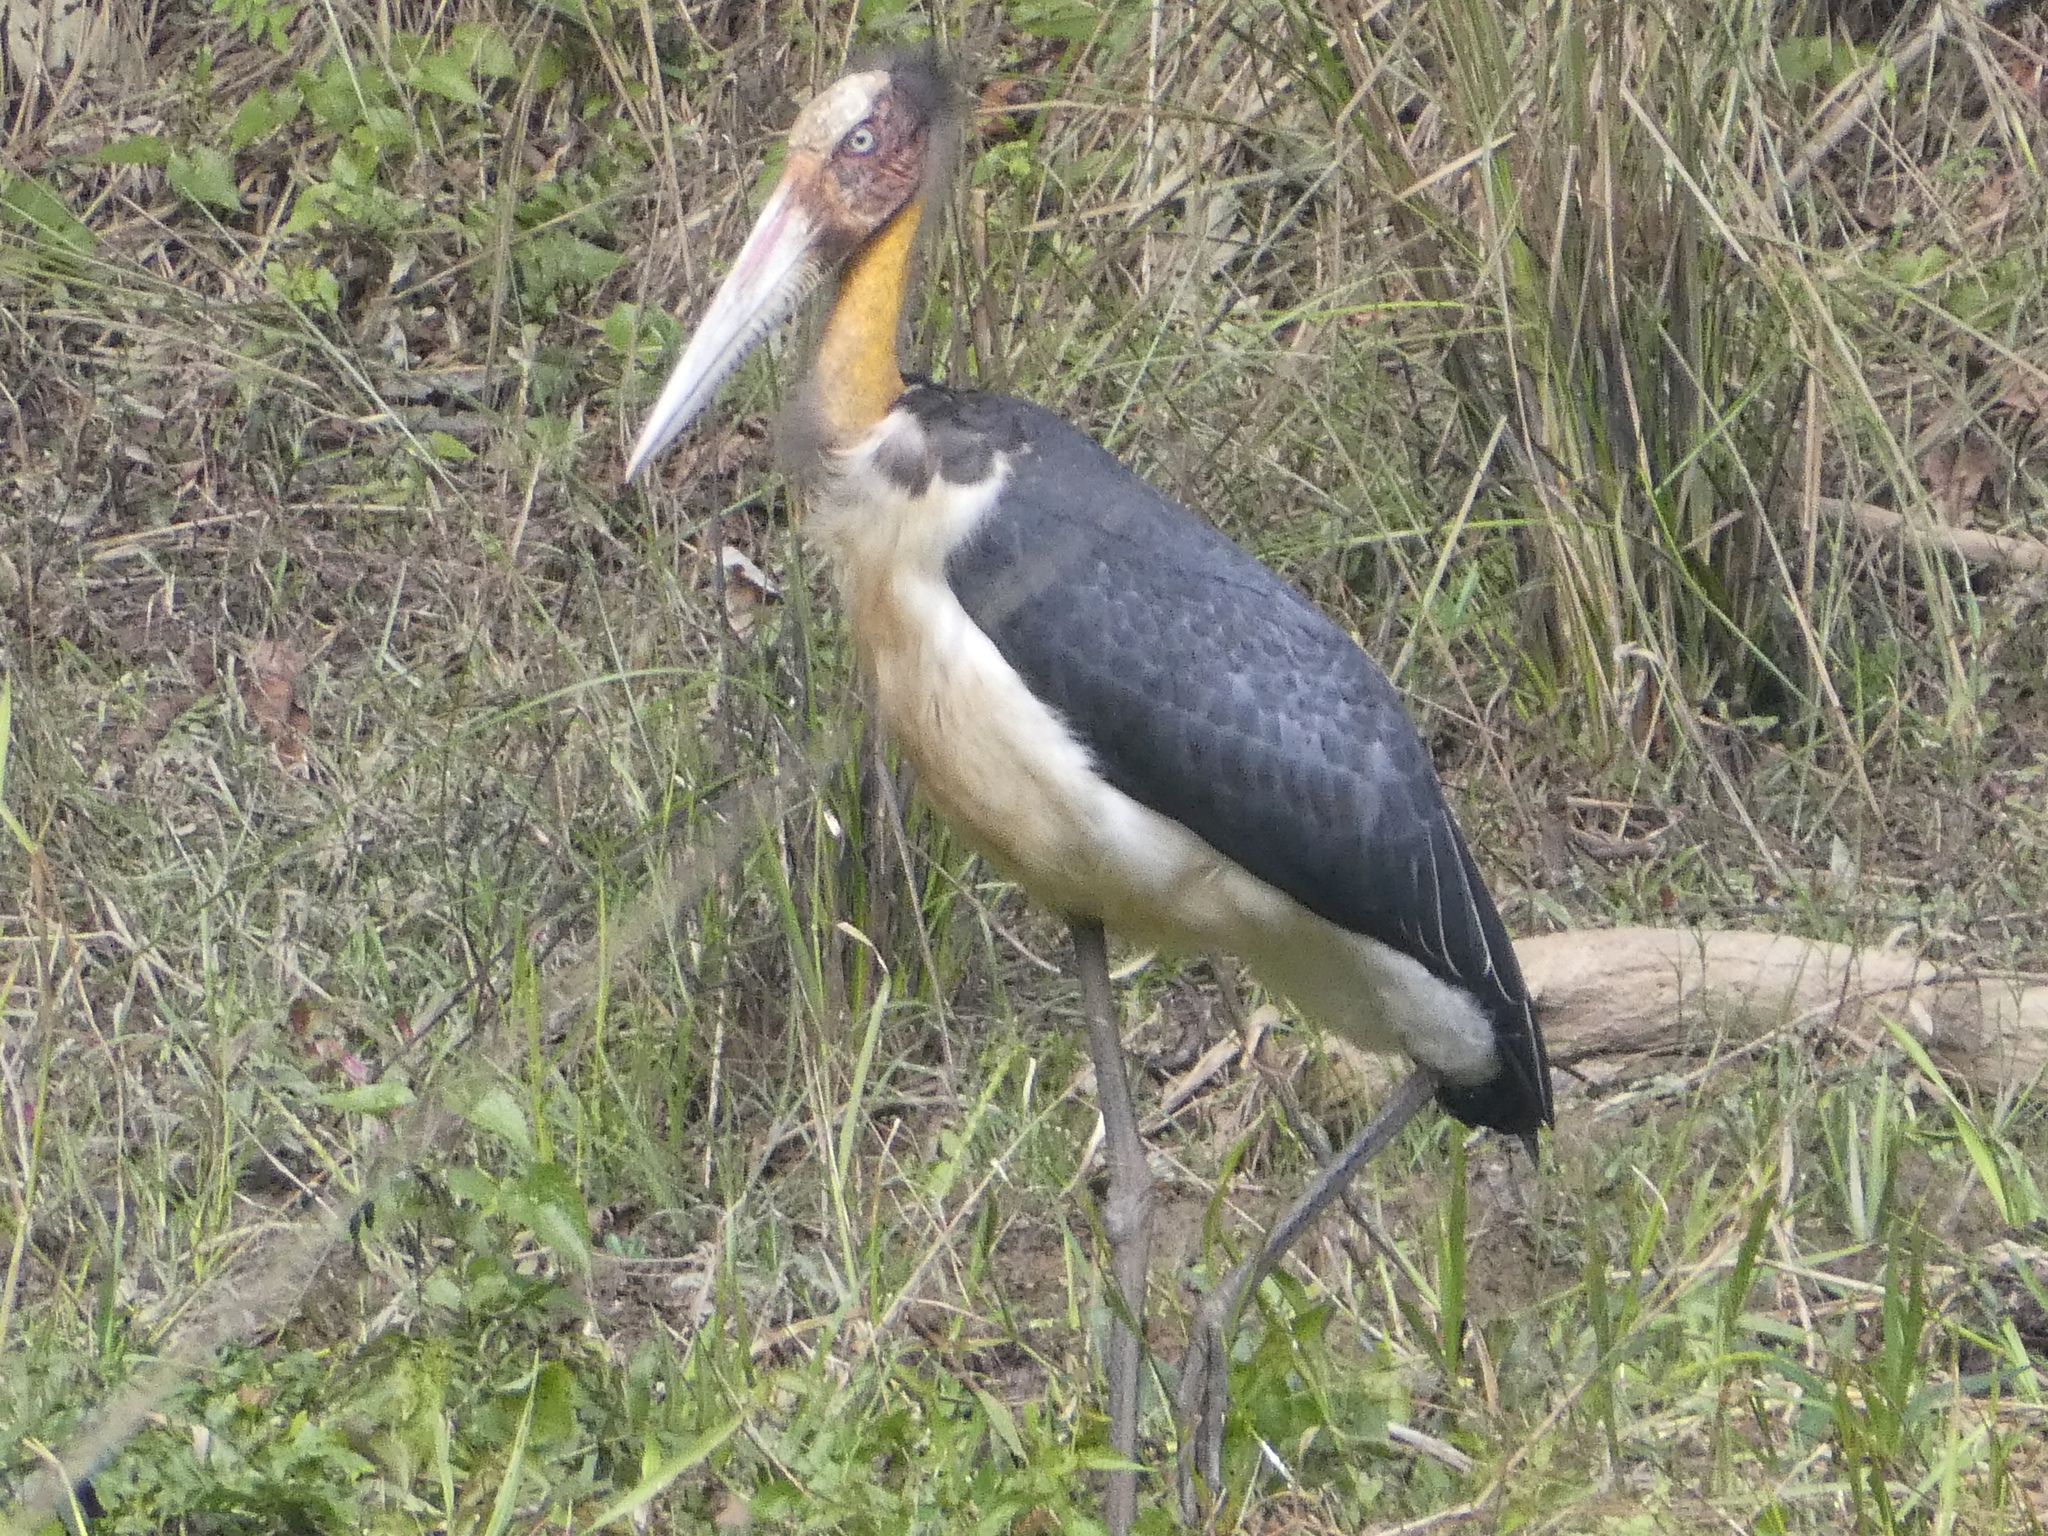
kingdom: Animalia
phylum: Chordata
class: Aves
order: Ciconiiformes
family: Ciconiidae
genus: Leptoptilos
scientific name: Leptoptilos javanicus
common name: Lesser adjutant
